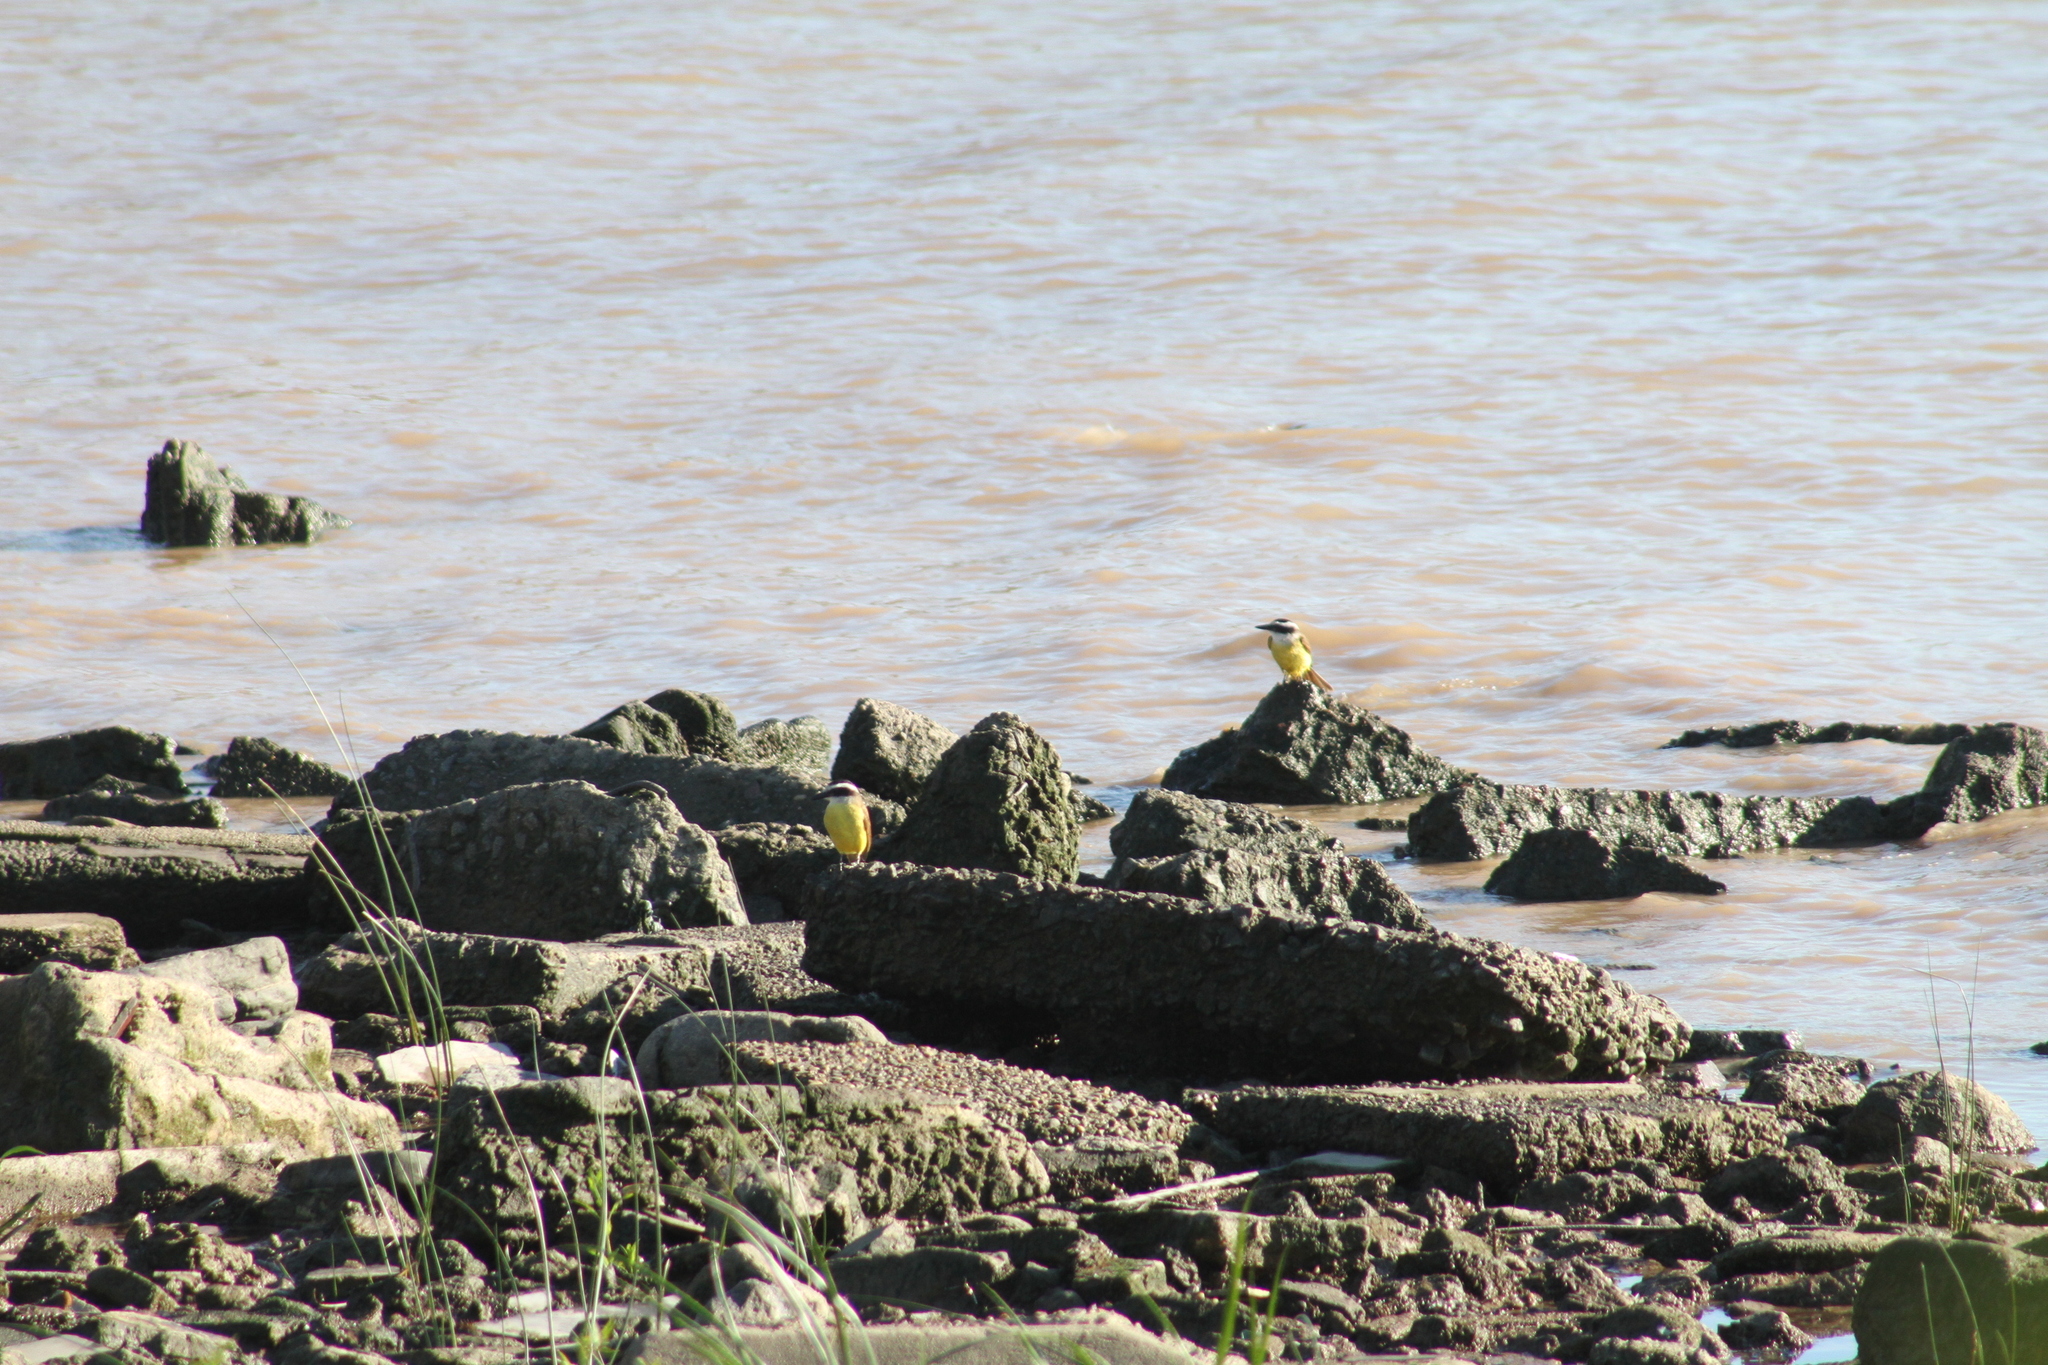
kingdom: Animalia
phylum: Chordata
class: Aves
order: Passeriformes
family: Tyrannidae
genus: Pitangus
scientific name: Pitangus sulphuratus
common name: Great kiskadee
